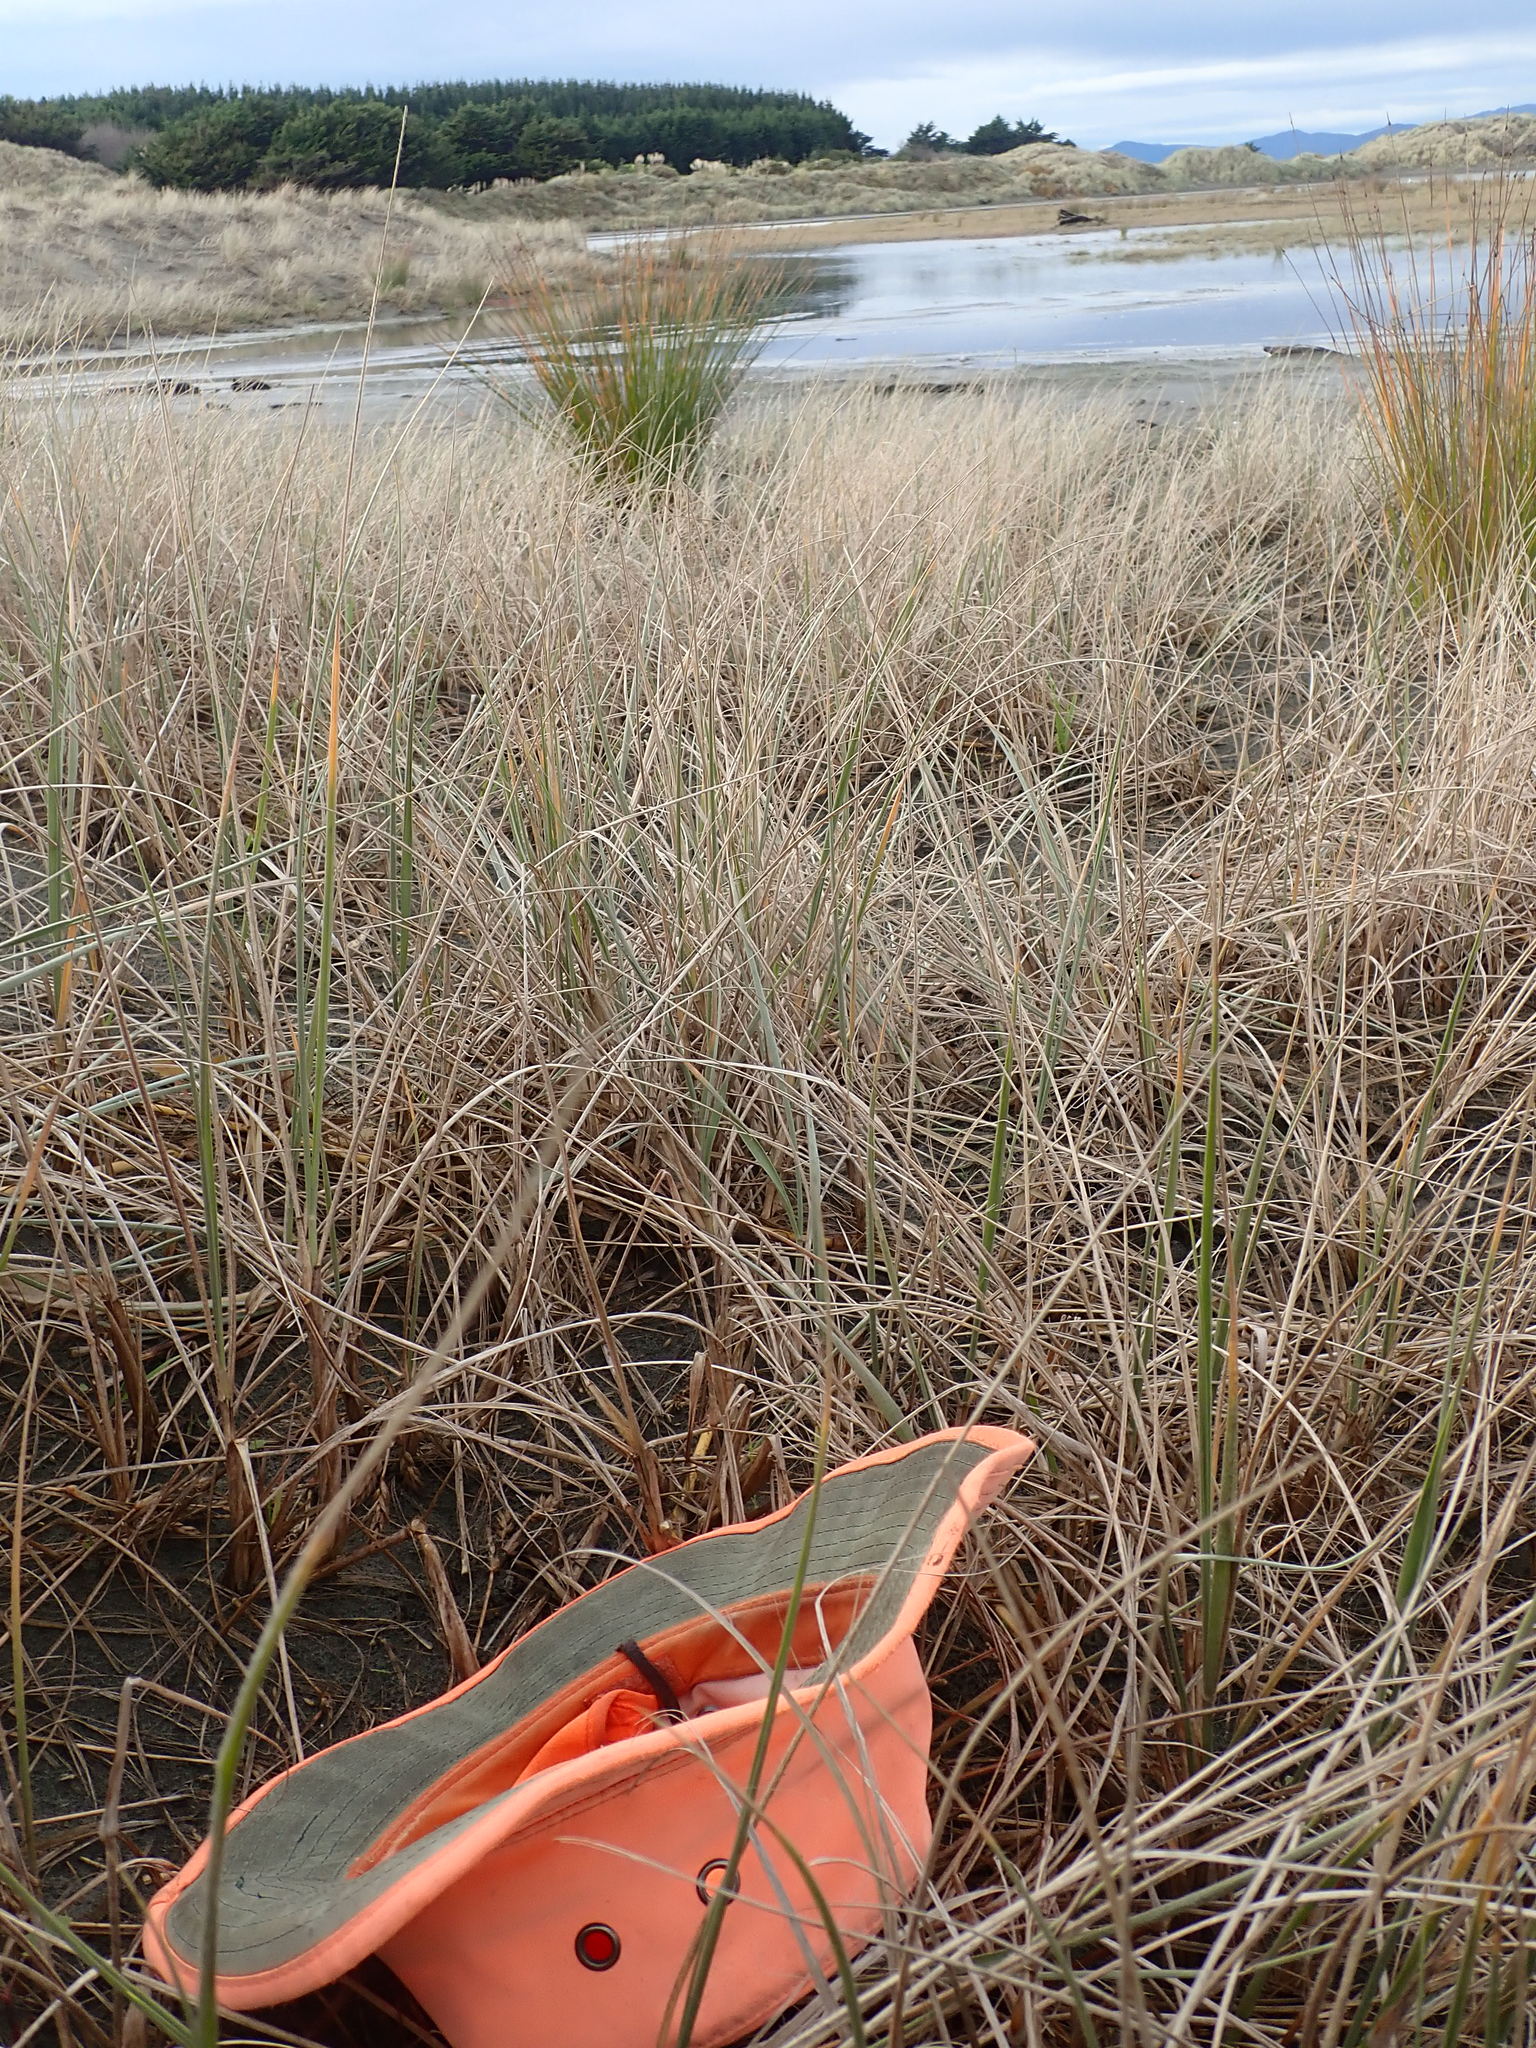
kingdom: Plantae
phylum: Tracheophyta
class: Magnoliopsida
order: Fabales
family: Fabaceae
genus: Acacia
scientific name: Acacia longifolia
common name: Sydney golden wattle
